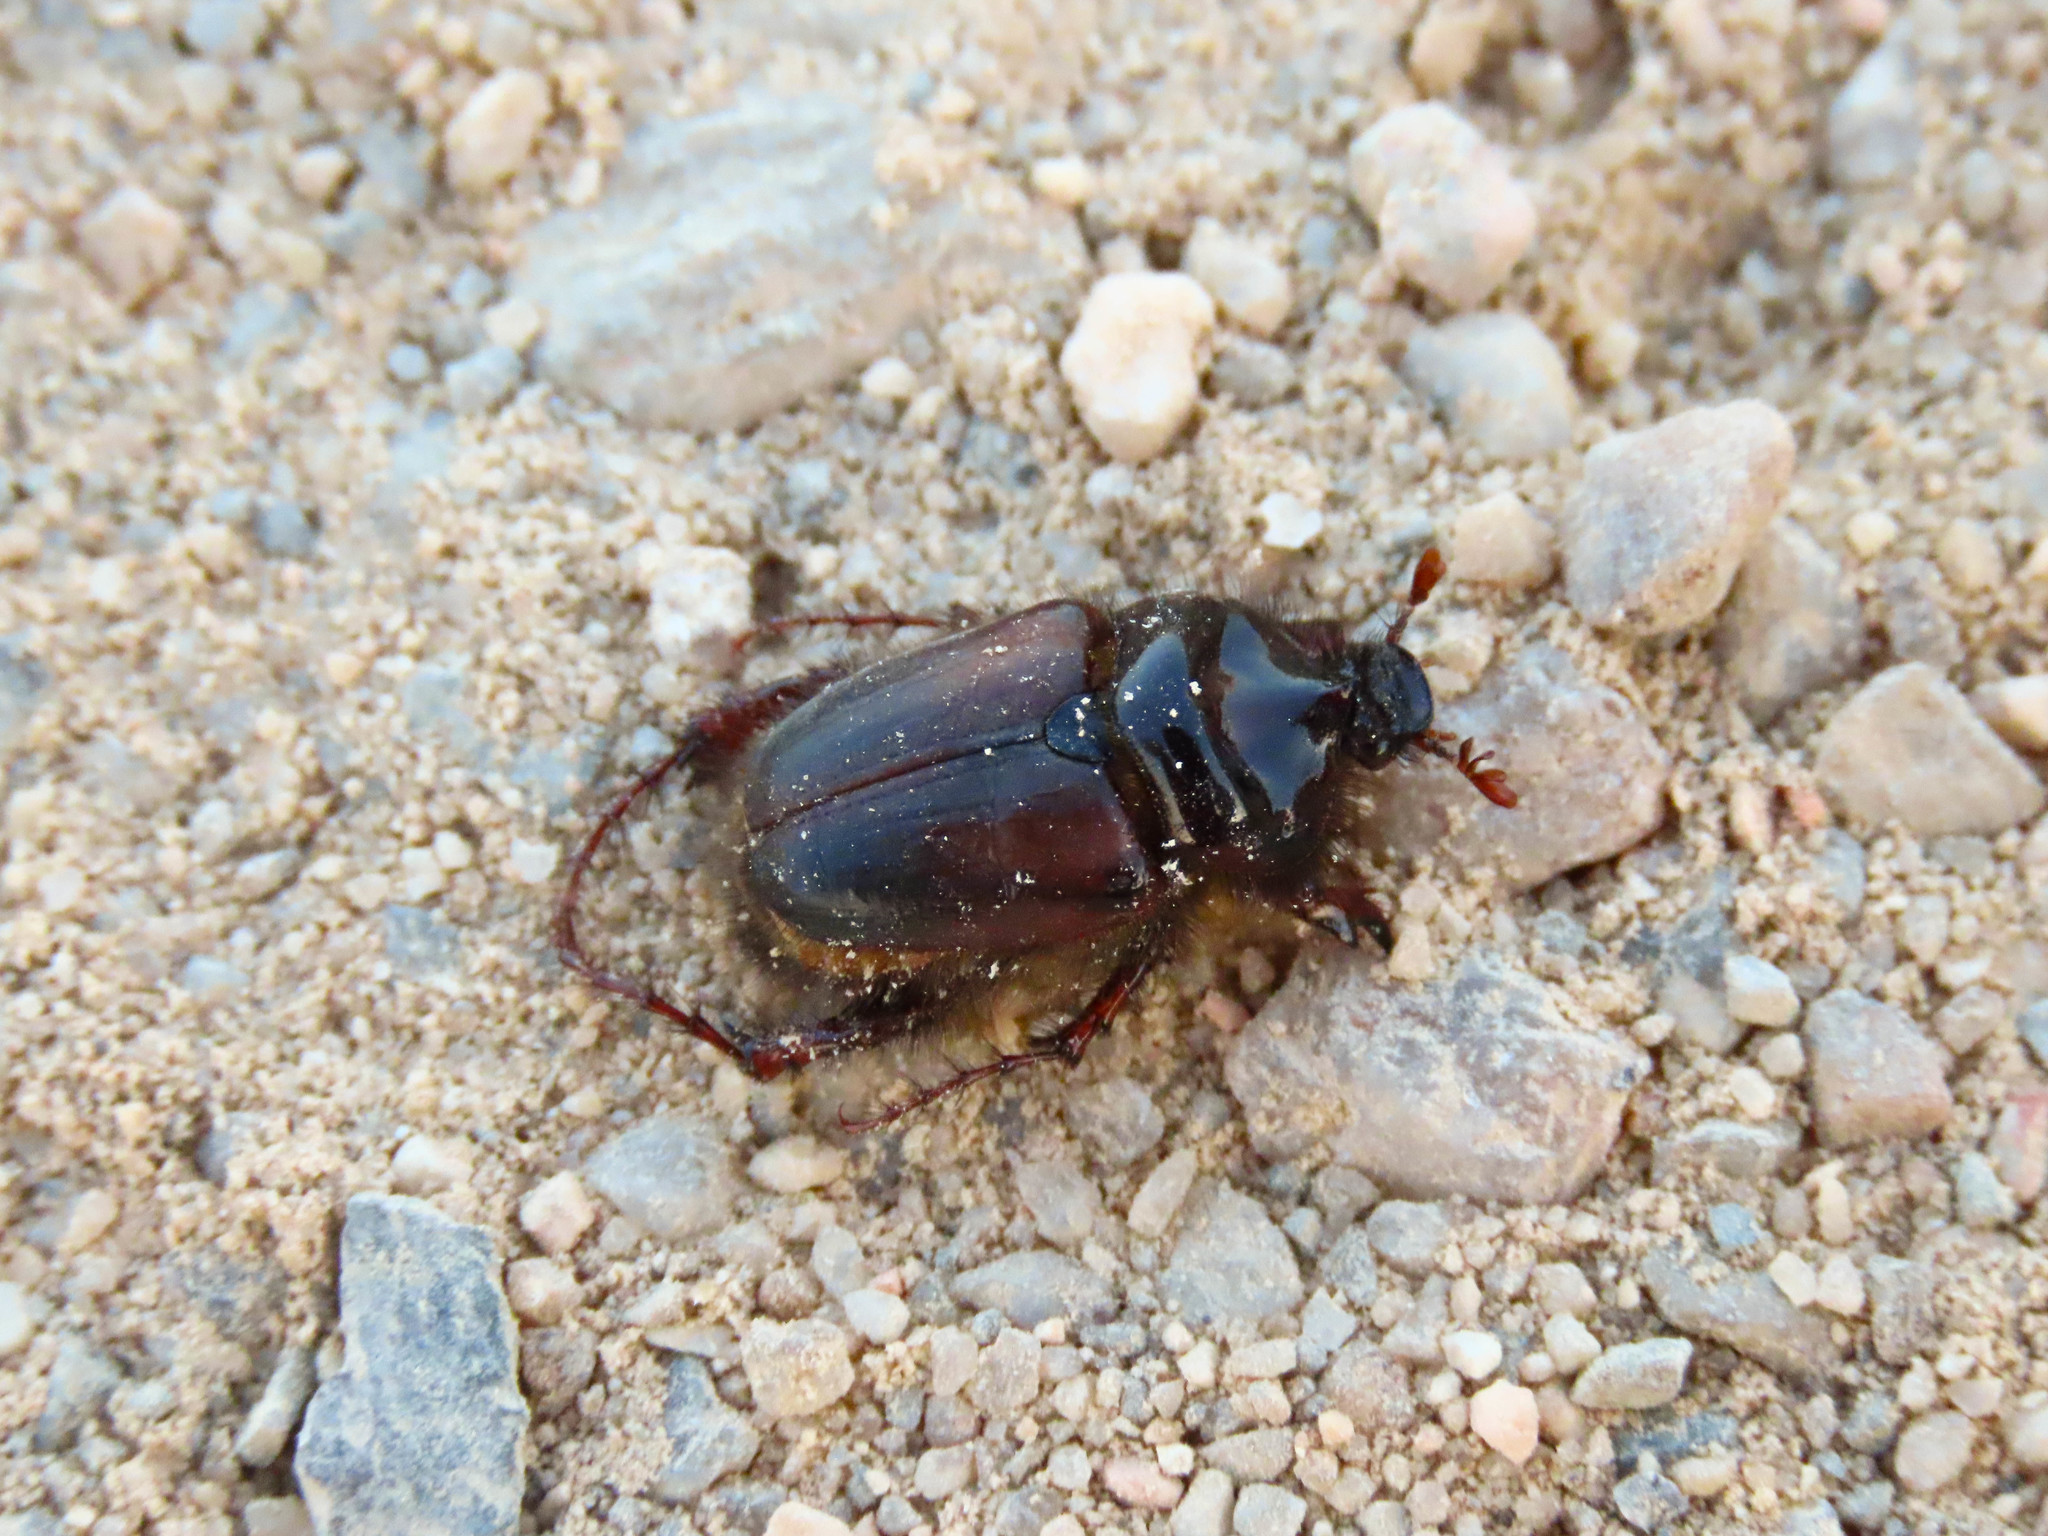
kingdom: Animalia
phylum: Arthropoda
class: Insecta
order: Coleoptera
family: Scarabaeidae
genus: Pachypus
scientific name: Pachypus candidae
